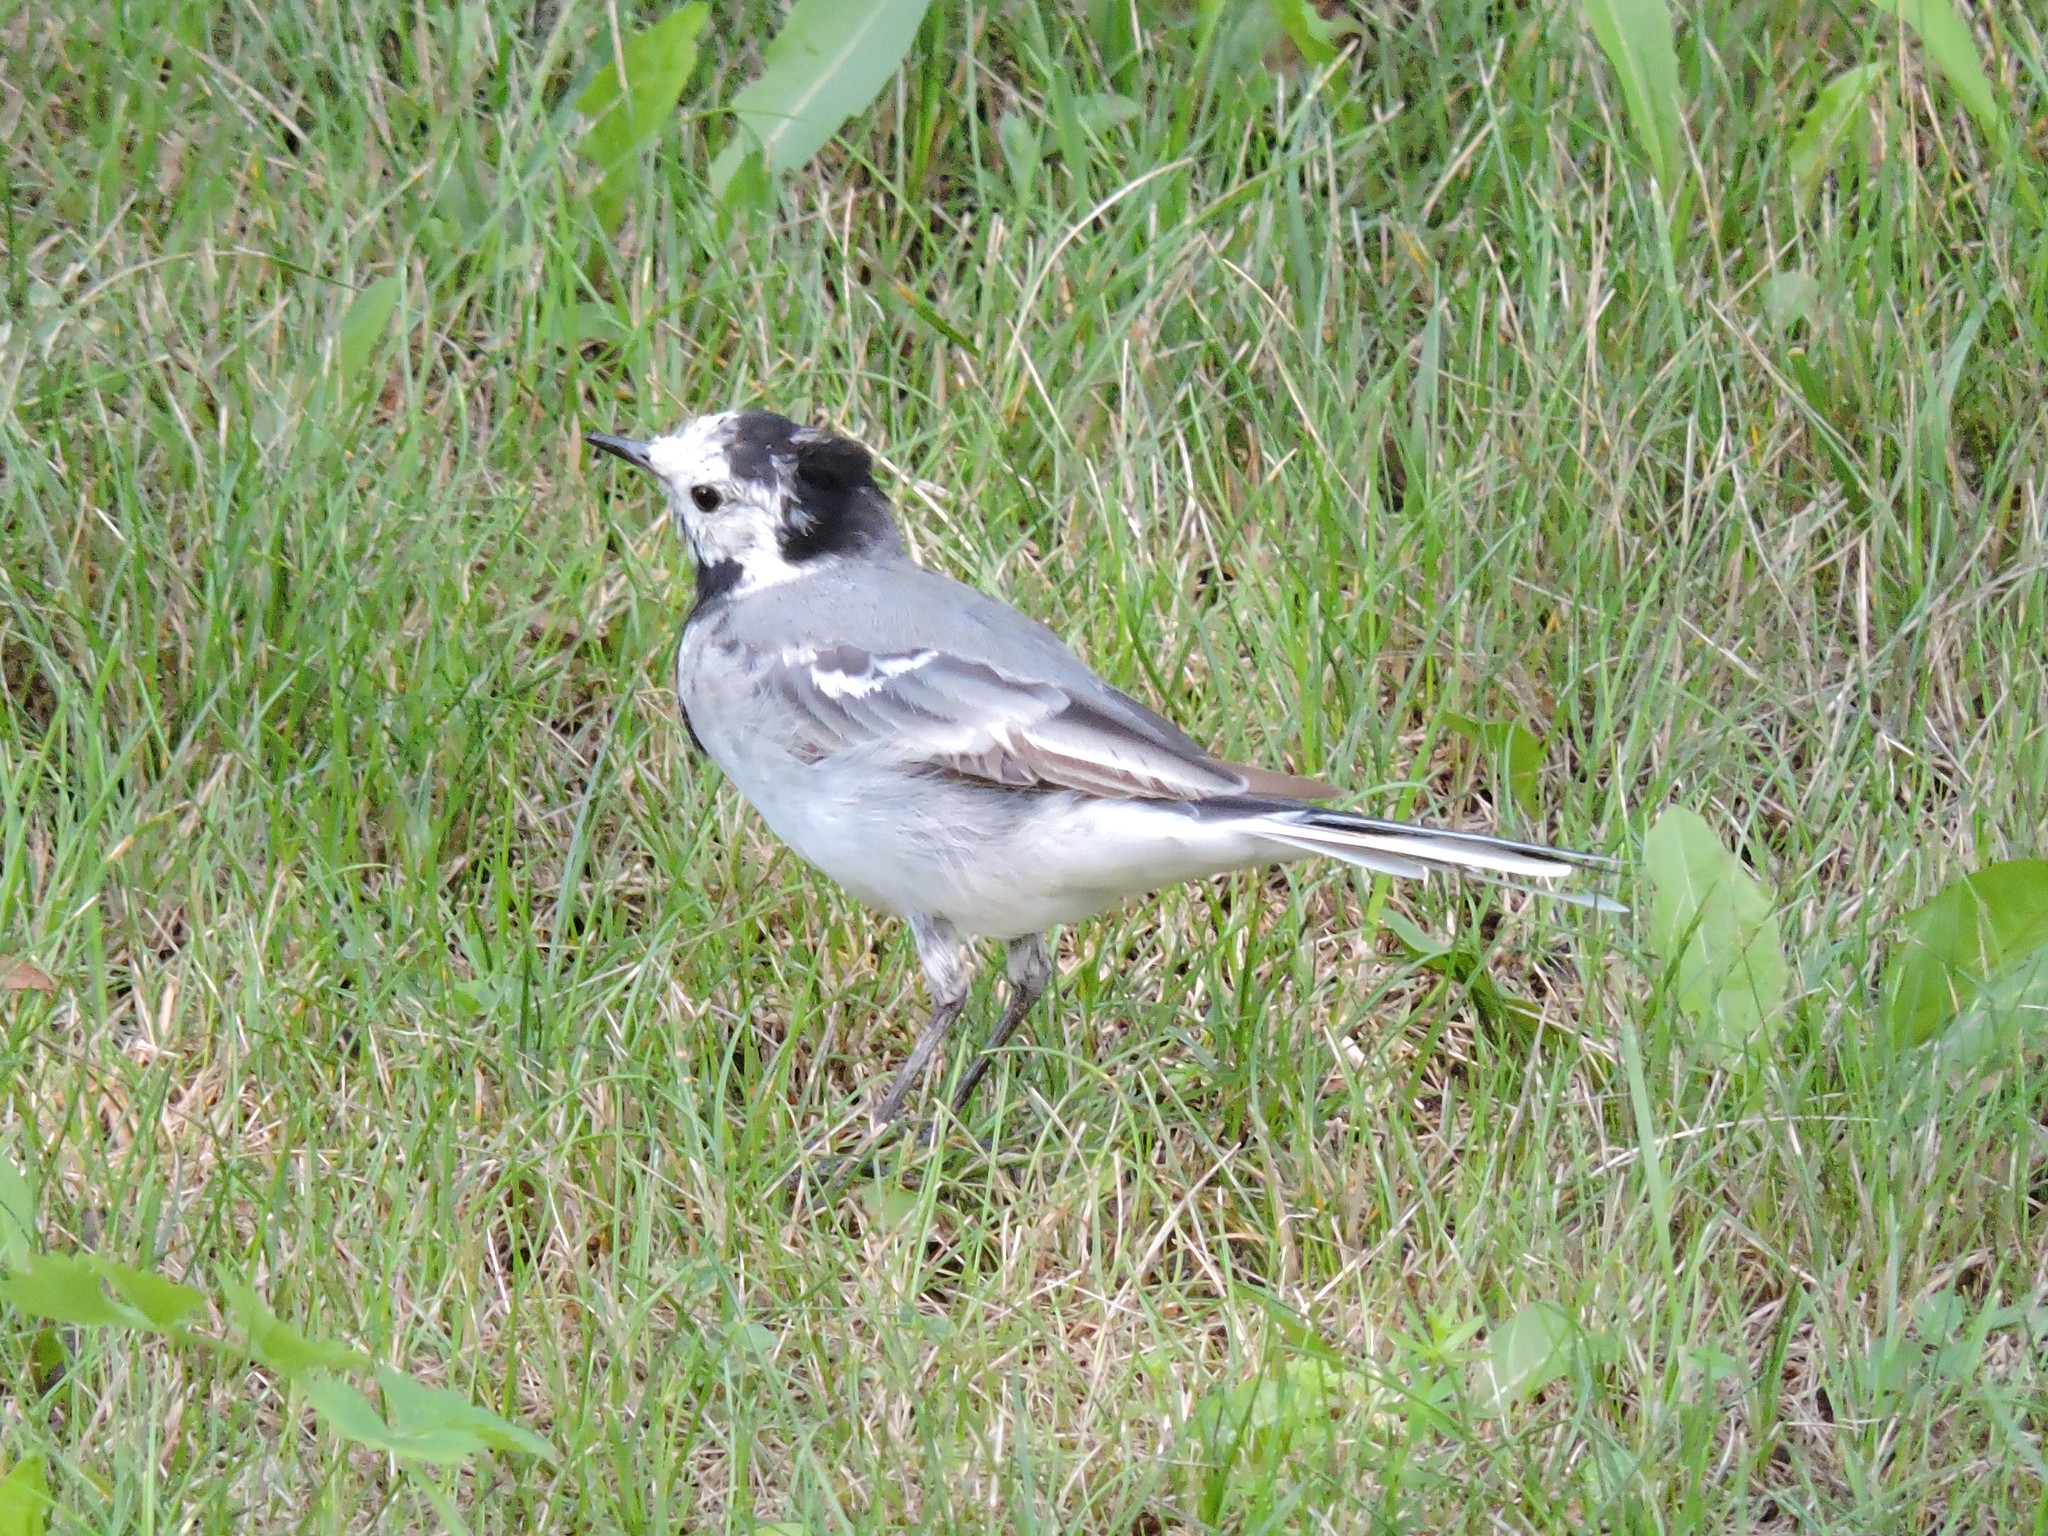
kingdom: Animalia
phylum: Chordata
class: Aves
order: Passeriformes
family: Motacillidae
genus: Motacilla
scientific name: Motacilla alba
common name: White wagtail
